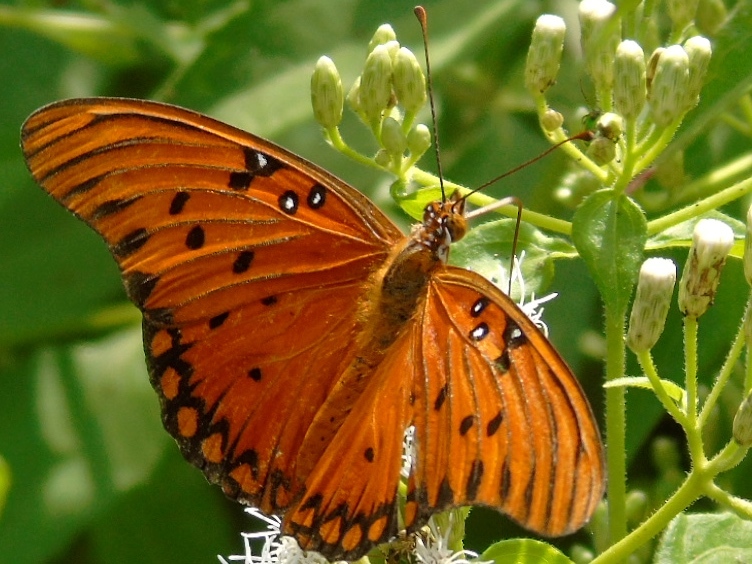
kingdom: Animalia
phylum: Arthropoda
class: Insecta
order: Lepidoptera
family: Nymphalidae
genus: Dione
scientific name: Dione vanillae
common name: Gulf fritillary
